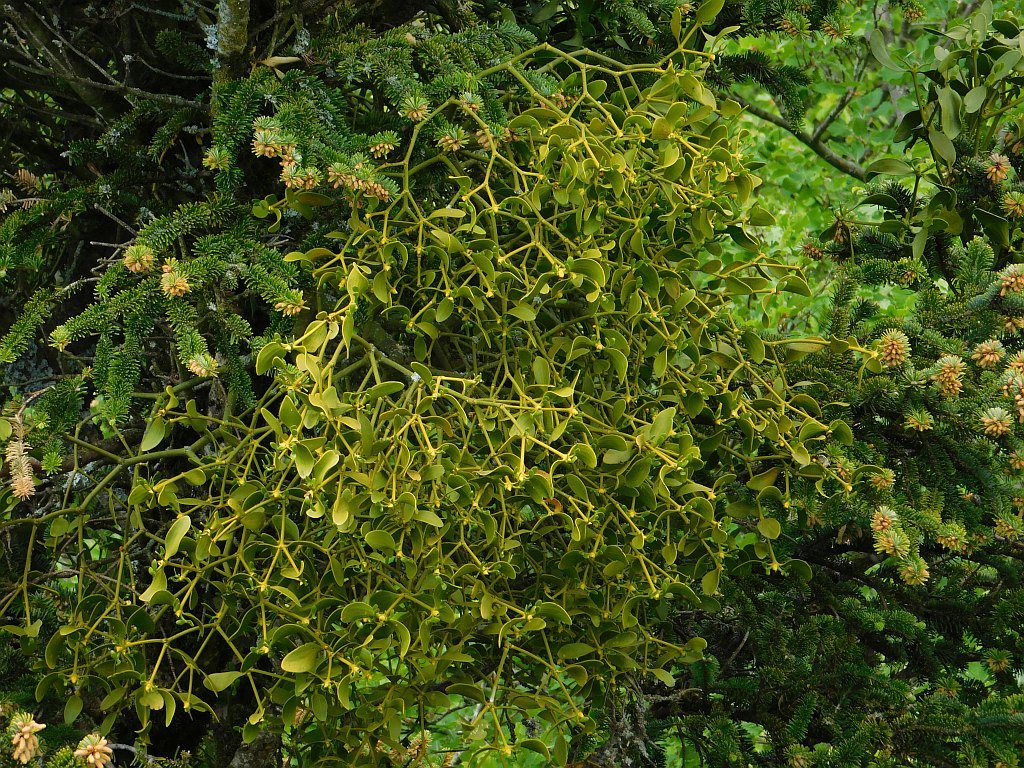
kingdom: Plantae
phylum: Tracheophyta
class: Magnoliopsida
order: Santalales
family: Viscaceae
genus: Viscum
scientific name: Viscum album
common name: Mistletoe
